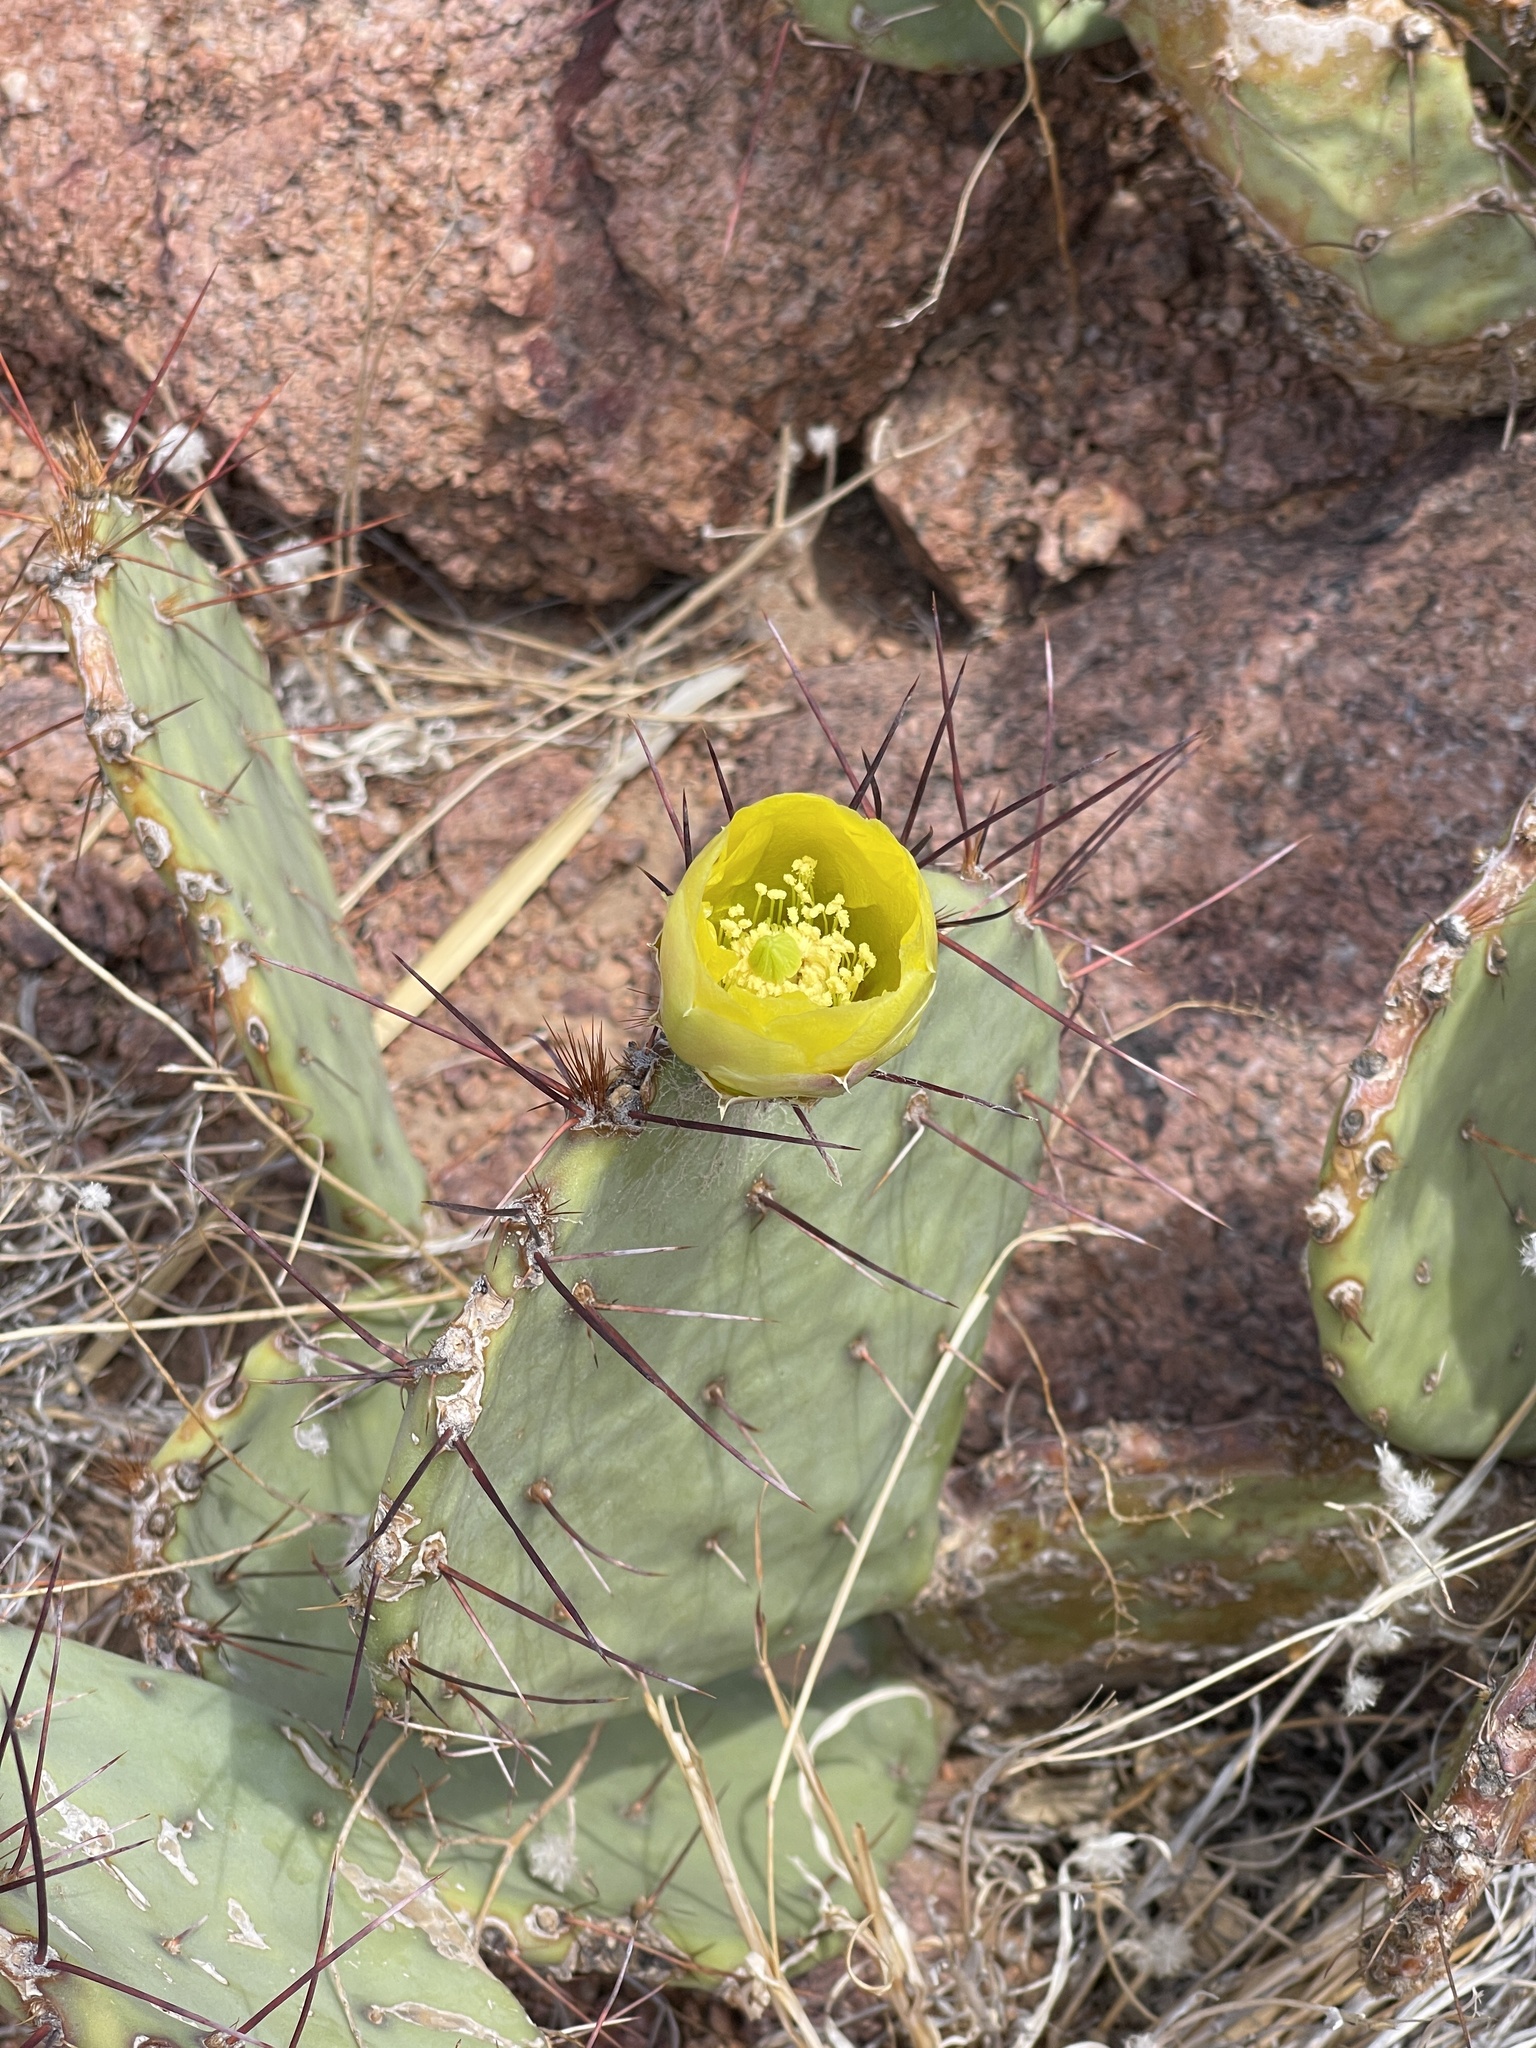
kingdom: Plantae
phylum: Tracheophyta
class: Magnoliopsida
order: Caryophyllales
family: Cactaceae
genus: Opuntia
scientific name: Opuntia phaeacantha
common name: New mexico prickly-pear
